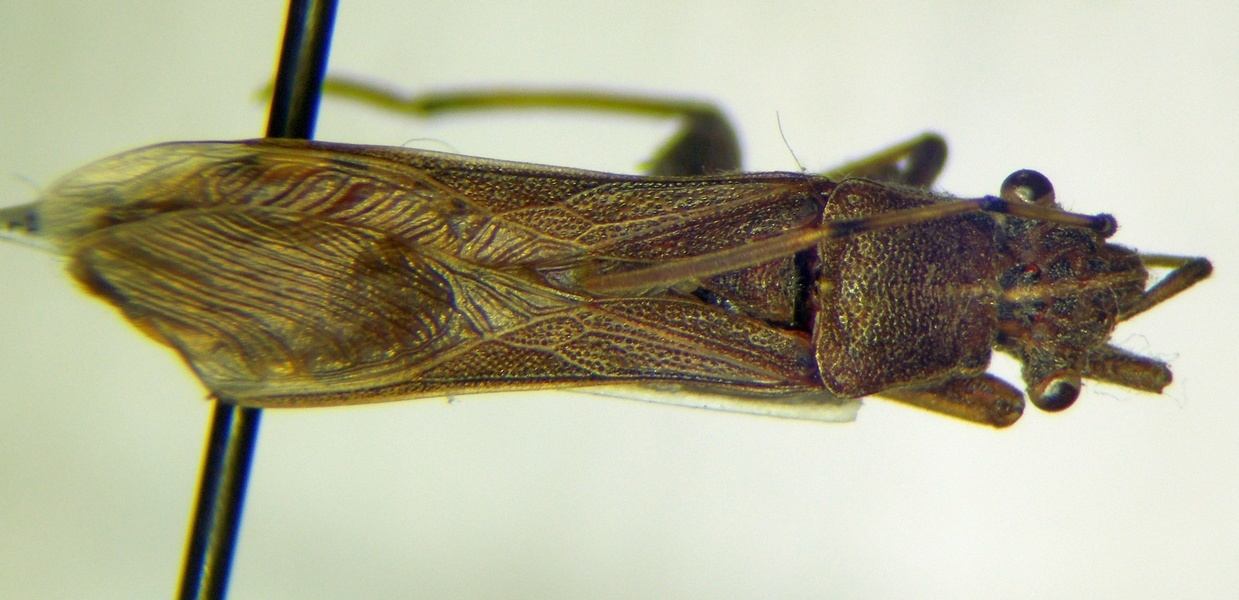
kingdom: Animalia
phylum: Arthropoda
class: Insecta
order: Hemiptera
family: Alydidae
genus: Camptopus
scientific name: Camptopus lateralis
